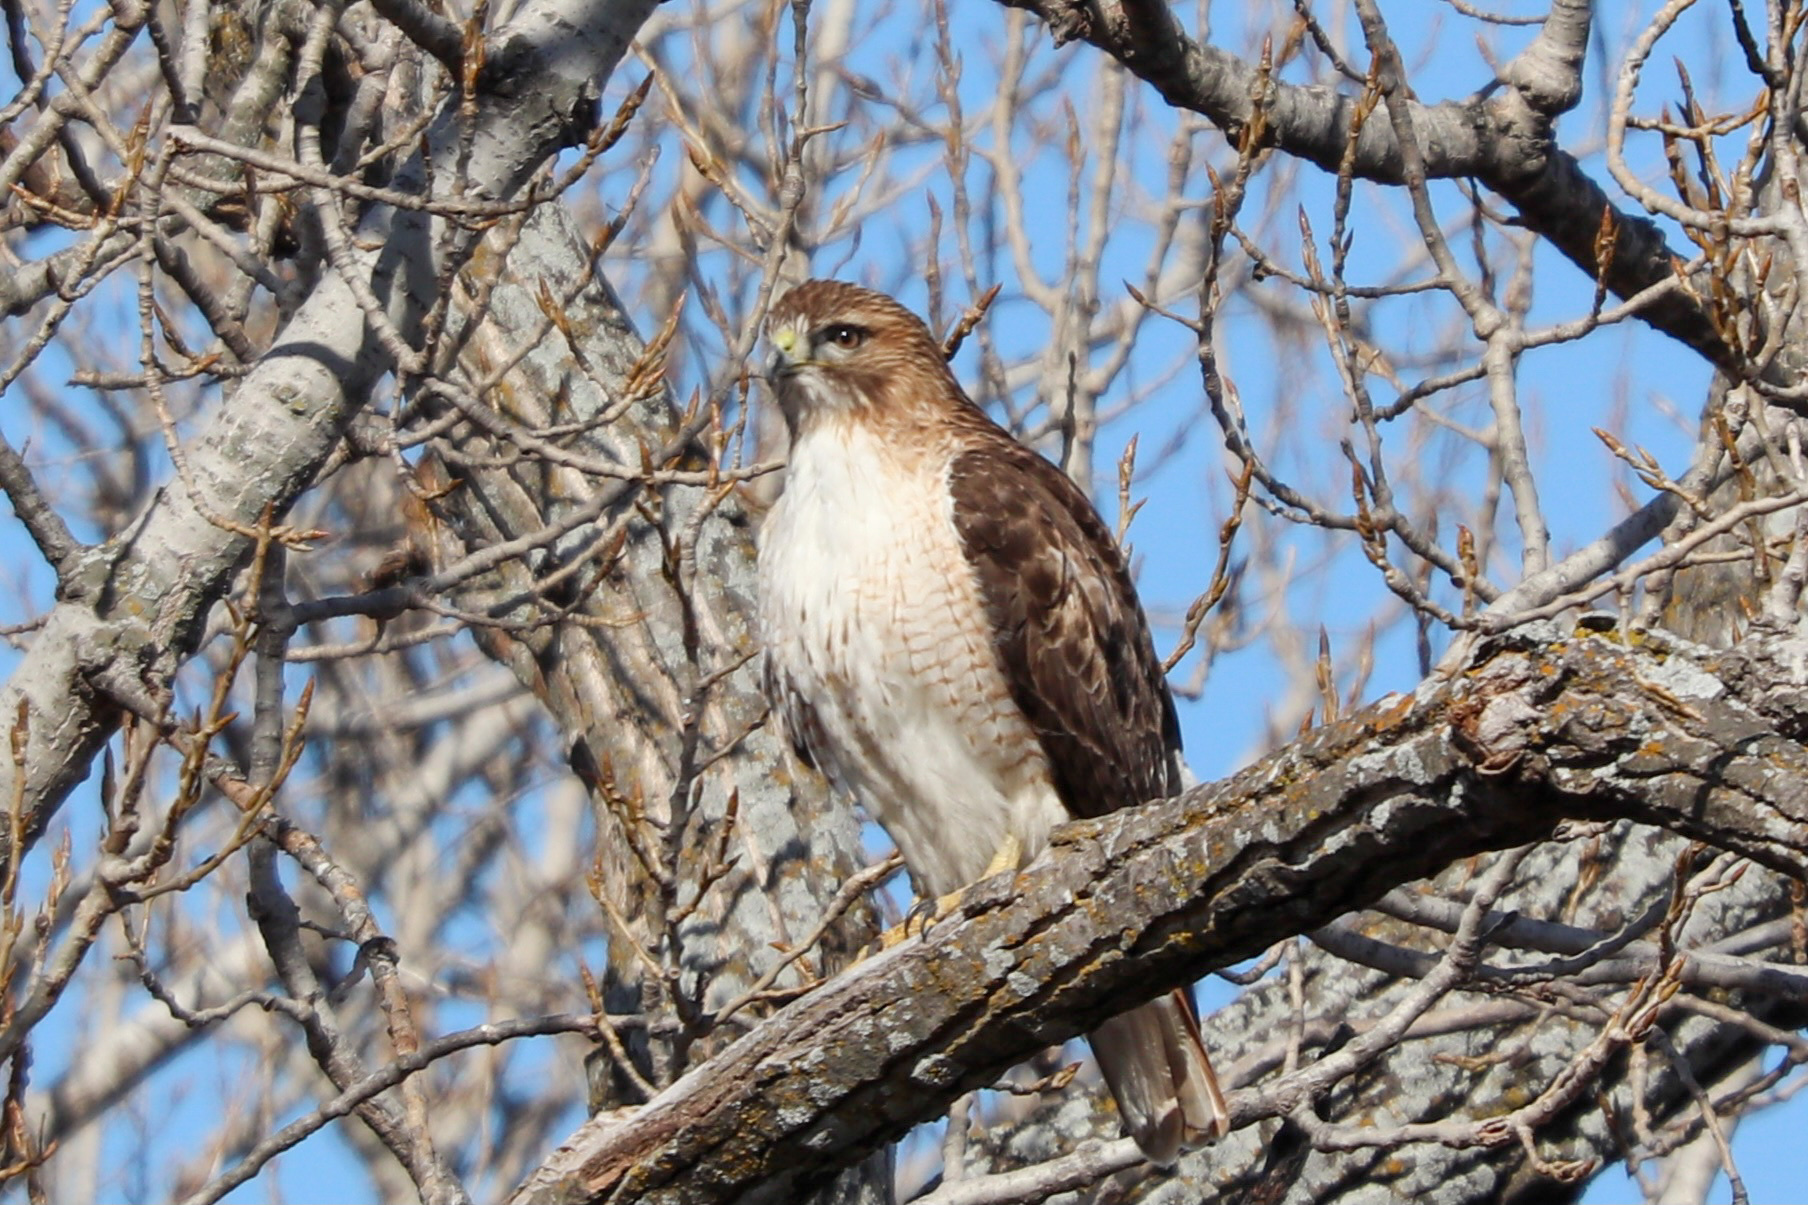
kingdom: Animalia
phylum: Chordata
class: Aves
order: Accipitriformes
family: Accipitridae
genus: Buteo
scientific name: Buteo jamaicensis
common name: Red-tailed hawk
